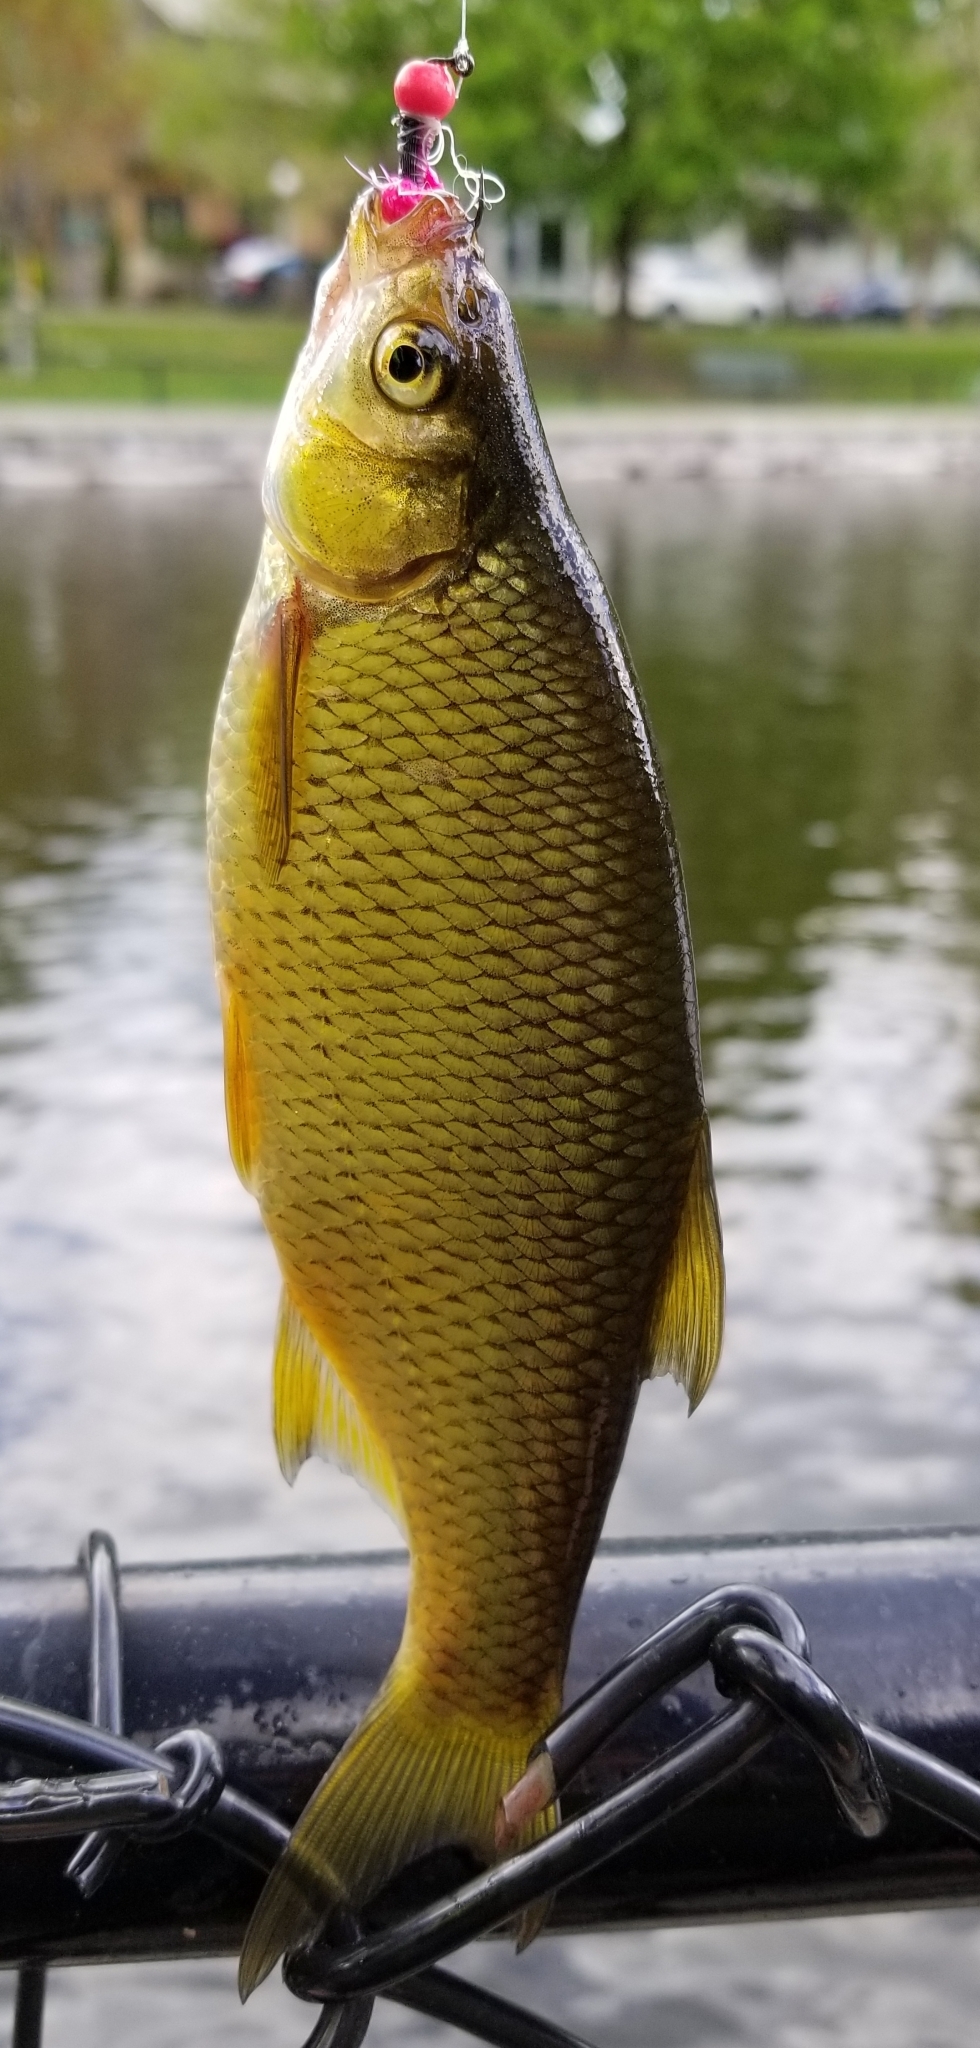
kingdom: Animalia
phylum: Chordata
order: Cypriniformes
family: Cyprinidae
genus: Notemigonus
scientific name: Notemigonus crysoleucas
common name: Golden shiner
